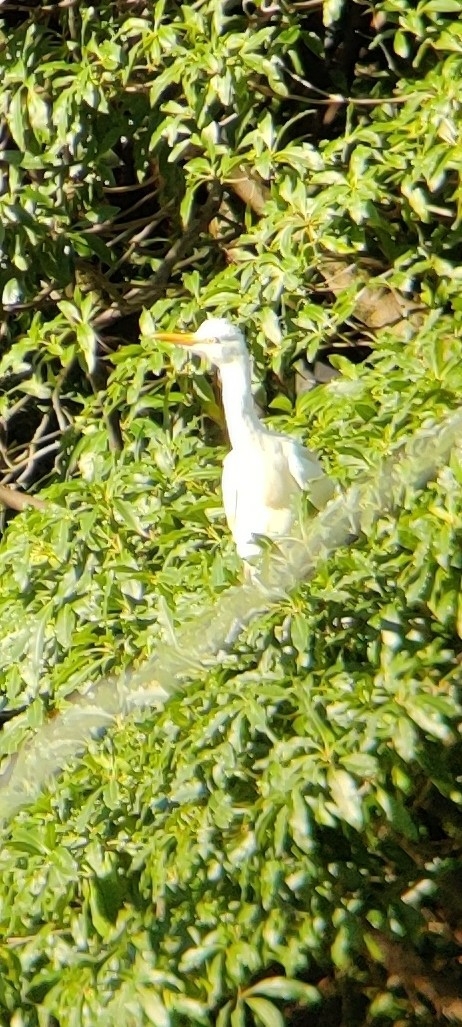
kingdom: Animalia
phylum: Chordata
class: Aves
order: Pelecaniformes
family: Ardeidae
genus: Bubulcus
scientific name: Bubulcus coromandus
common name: Eastern cattle egret
